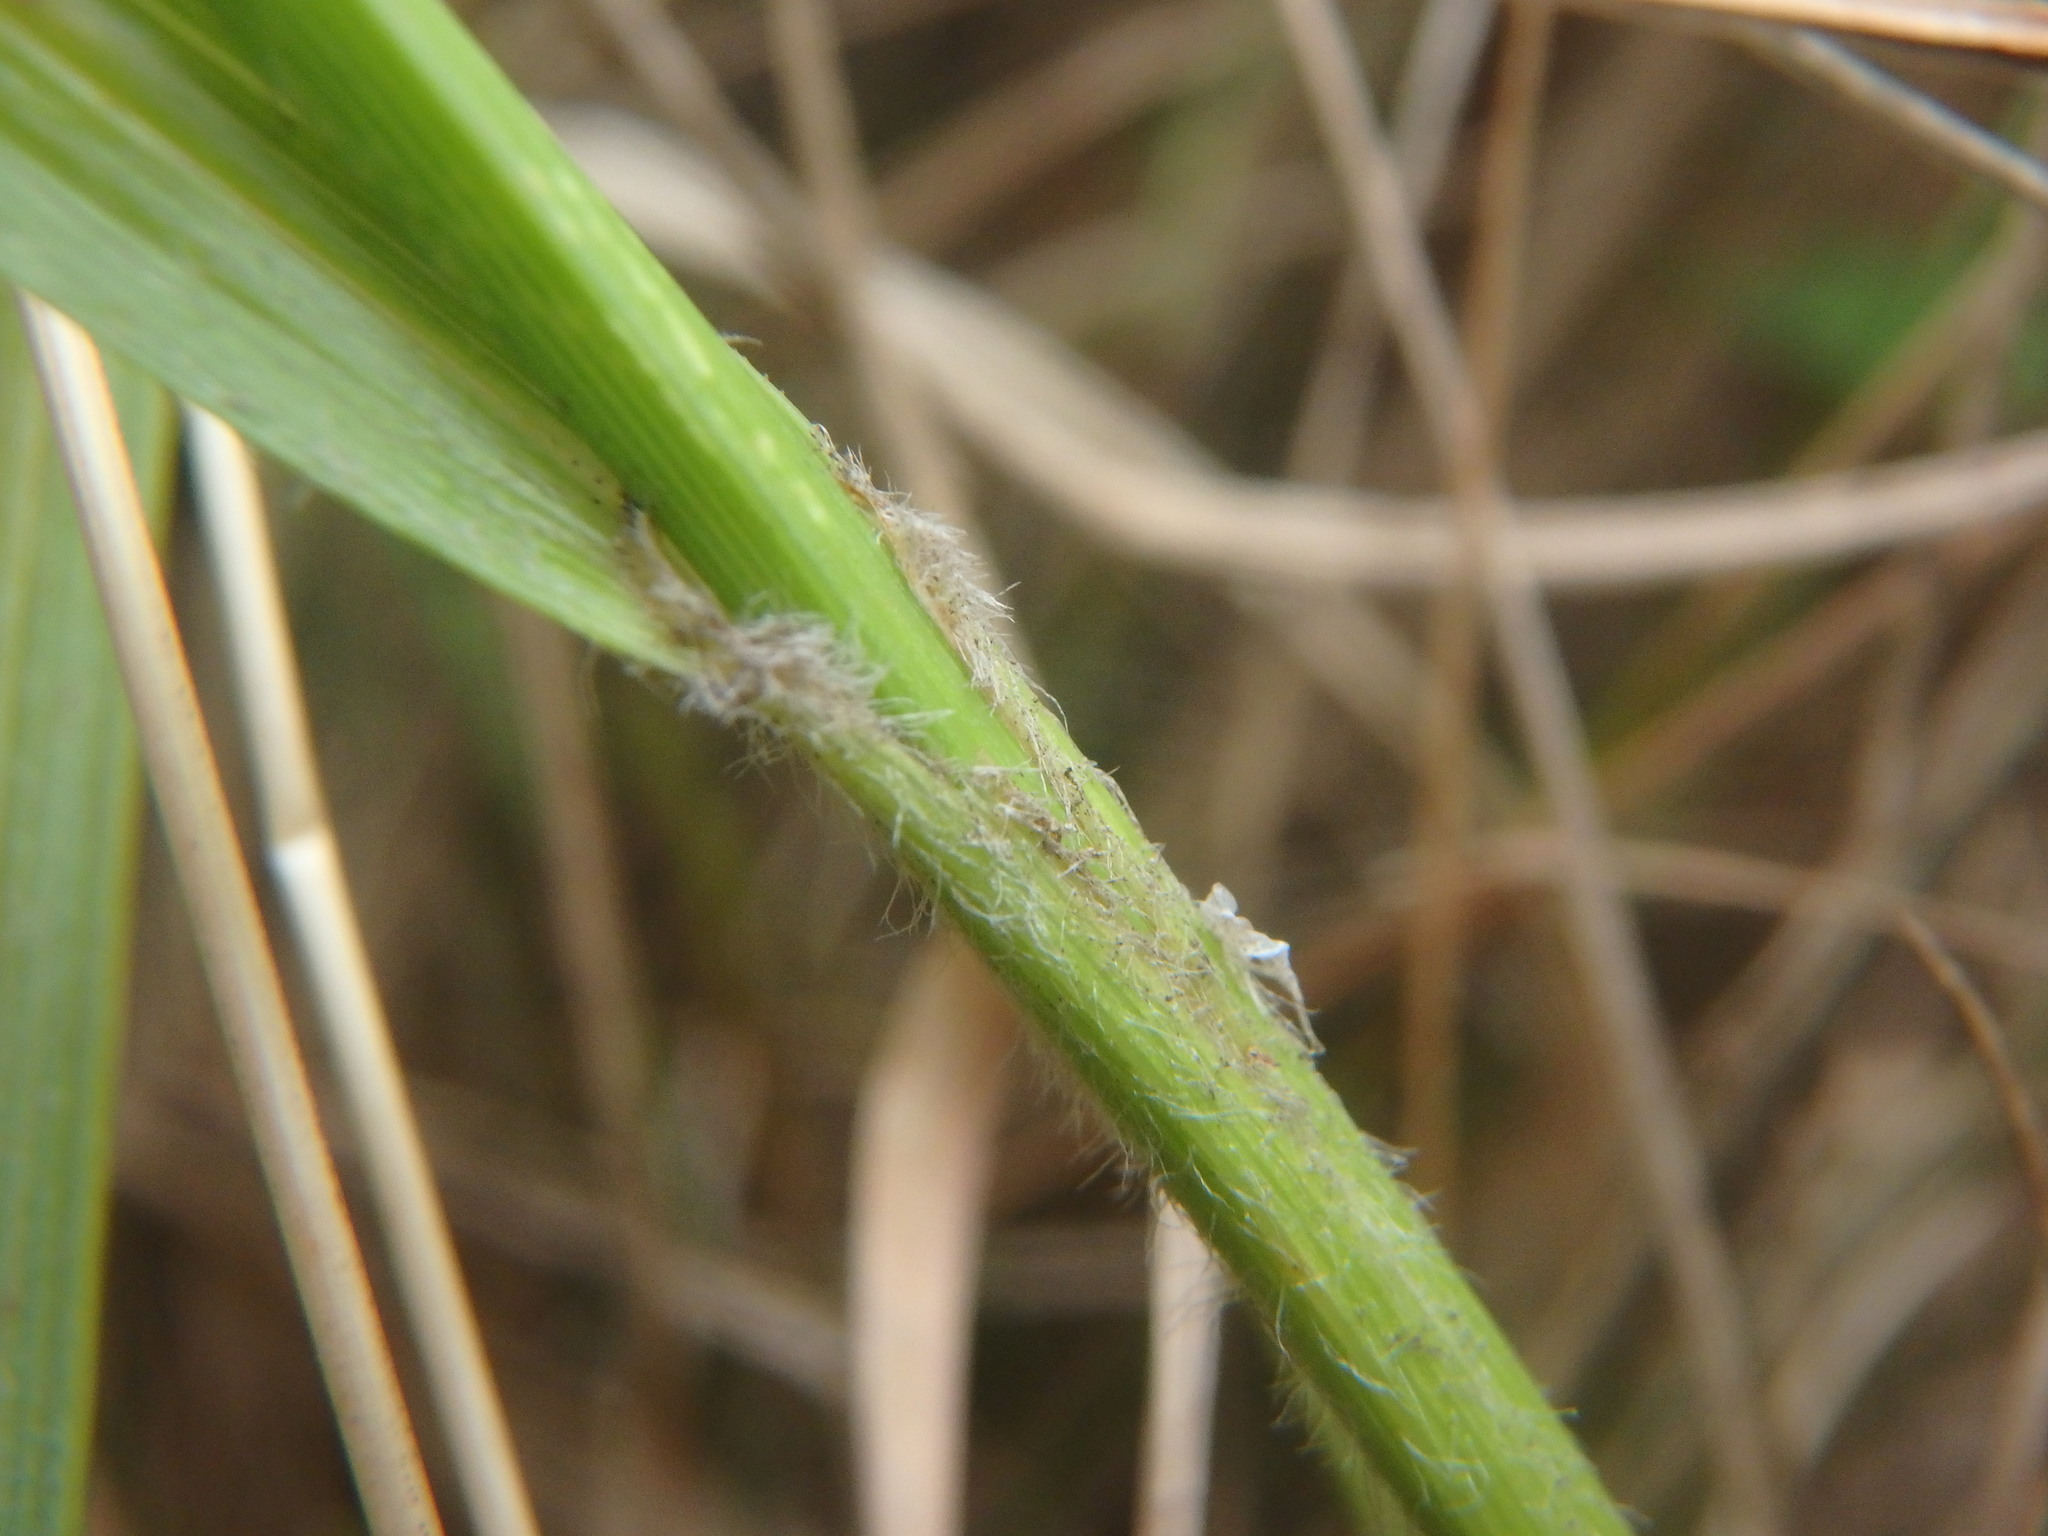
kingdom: Plantae
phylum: Tracheophyta
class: Liliopsida
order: Poales
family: Cyperaceae
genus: Carex
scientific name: Carex hirta
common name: Hairy sedge
